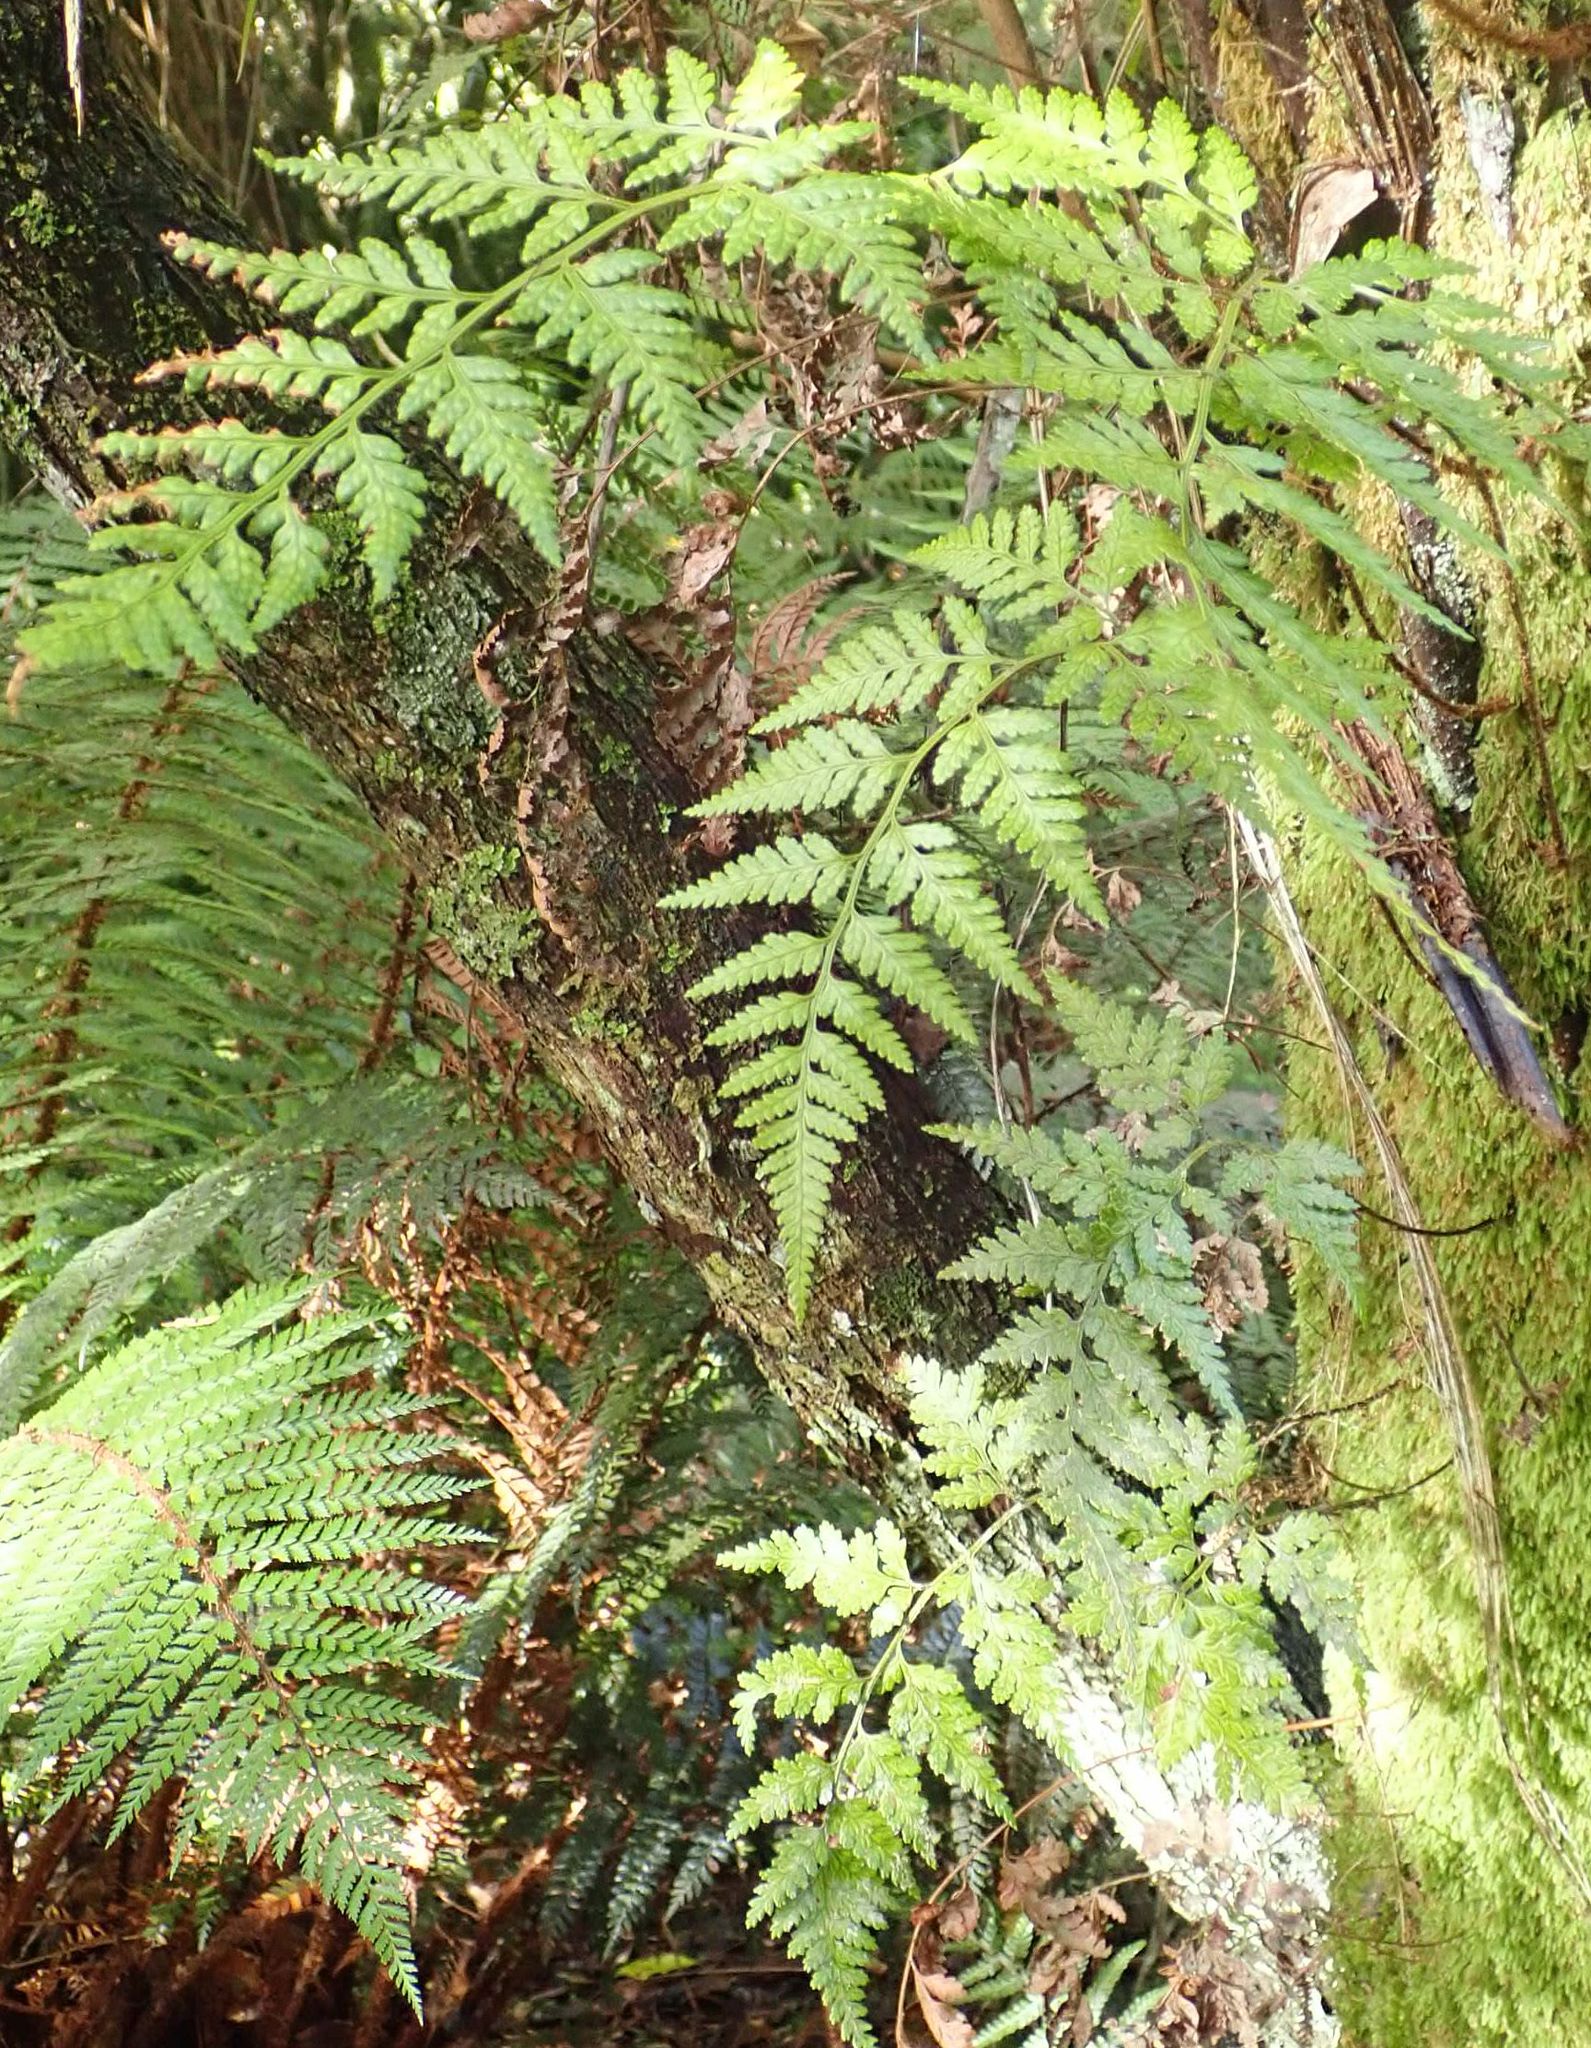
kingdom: Plantae
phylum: Tracheophyta
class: Polypodiopsida
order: Polypodiales
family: Dryopteridaceae
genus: Rumohra
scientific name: Rumohra adiantiformis
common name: Leather fern
